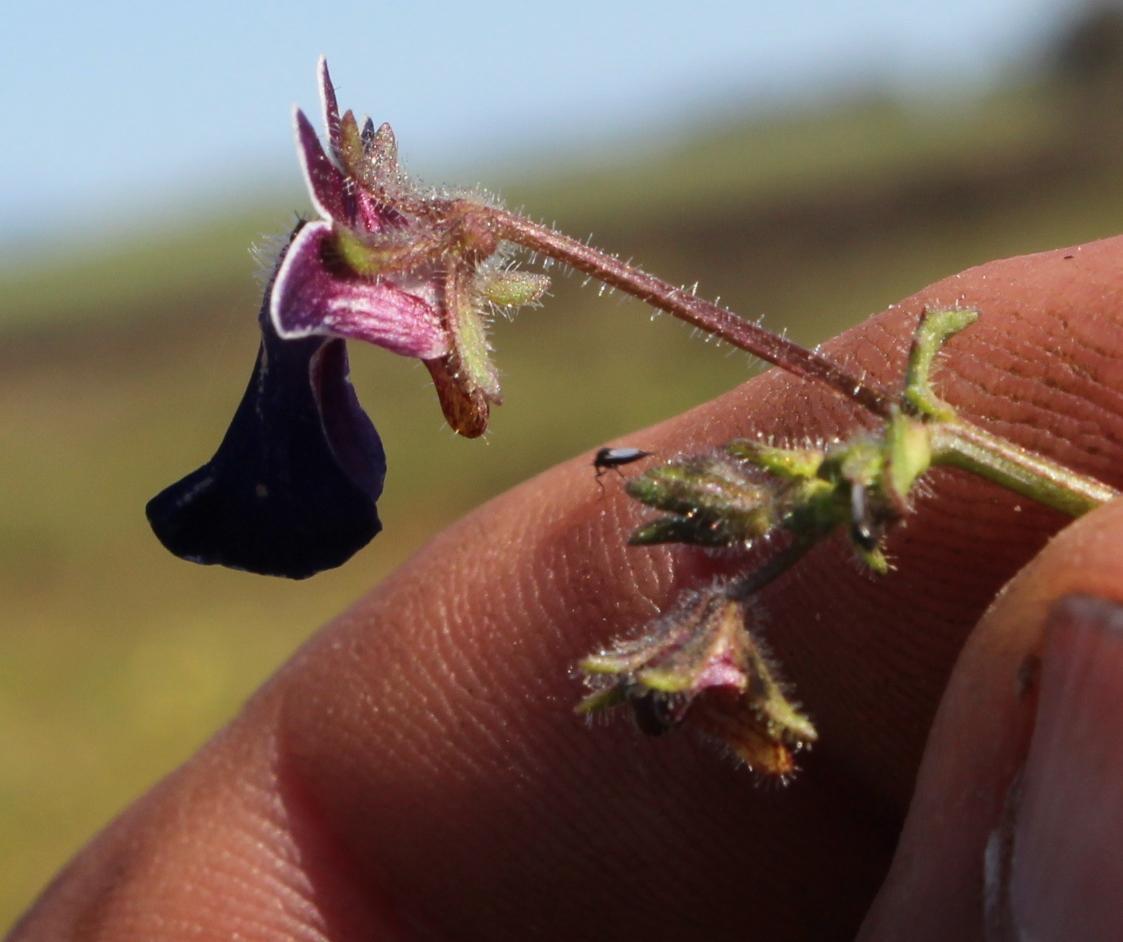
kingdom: Plantae
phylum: Tracheophyta
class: Magnoliopsida
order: Lamiales
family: Scrophulariaceae
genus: Nemesia
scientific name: Nemesia barbata
